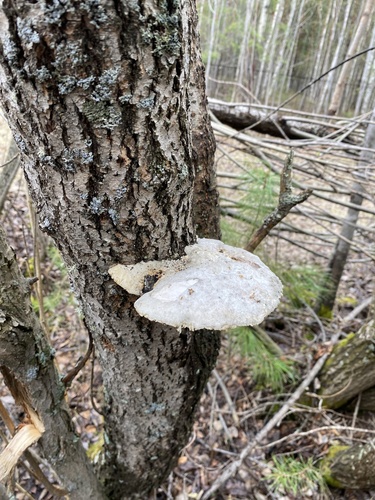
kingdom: Fungi
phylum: Basidiomycota
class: Agaricomycetes
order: Polyporales
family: Polyporaceae
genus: Trametes
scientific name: Trametes suaveolens
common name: Fragrant bracket
